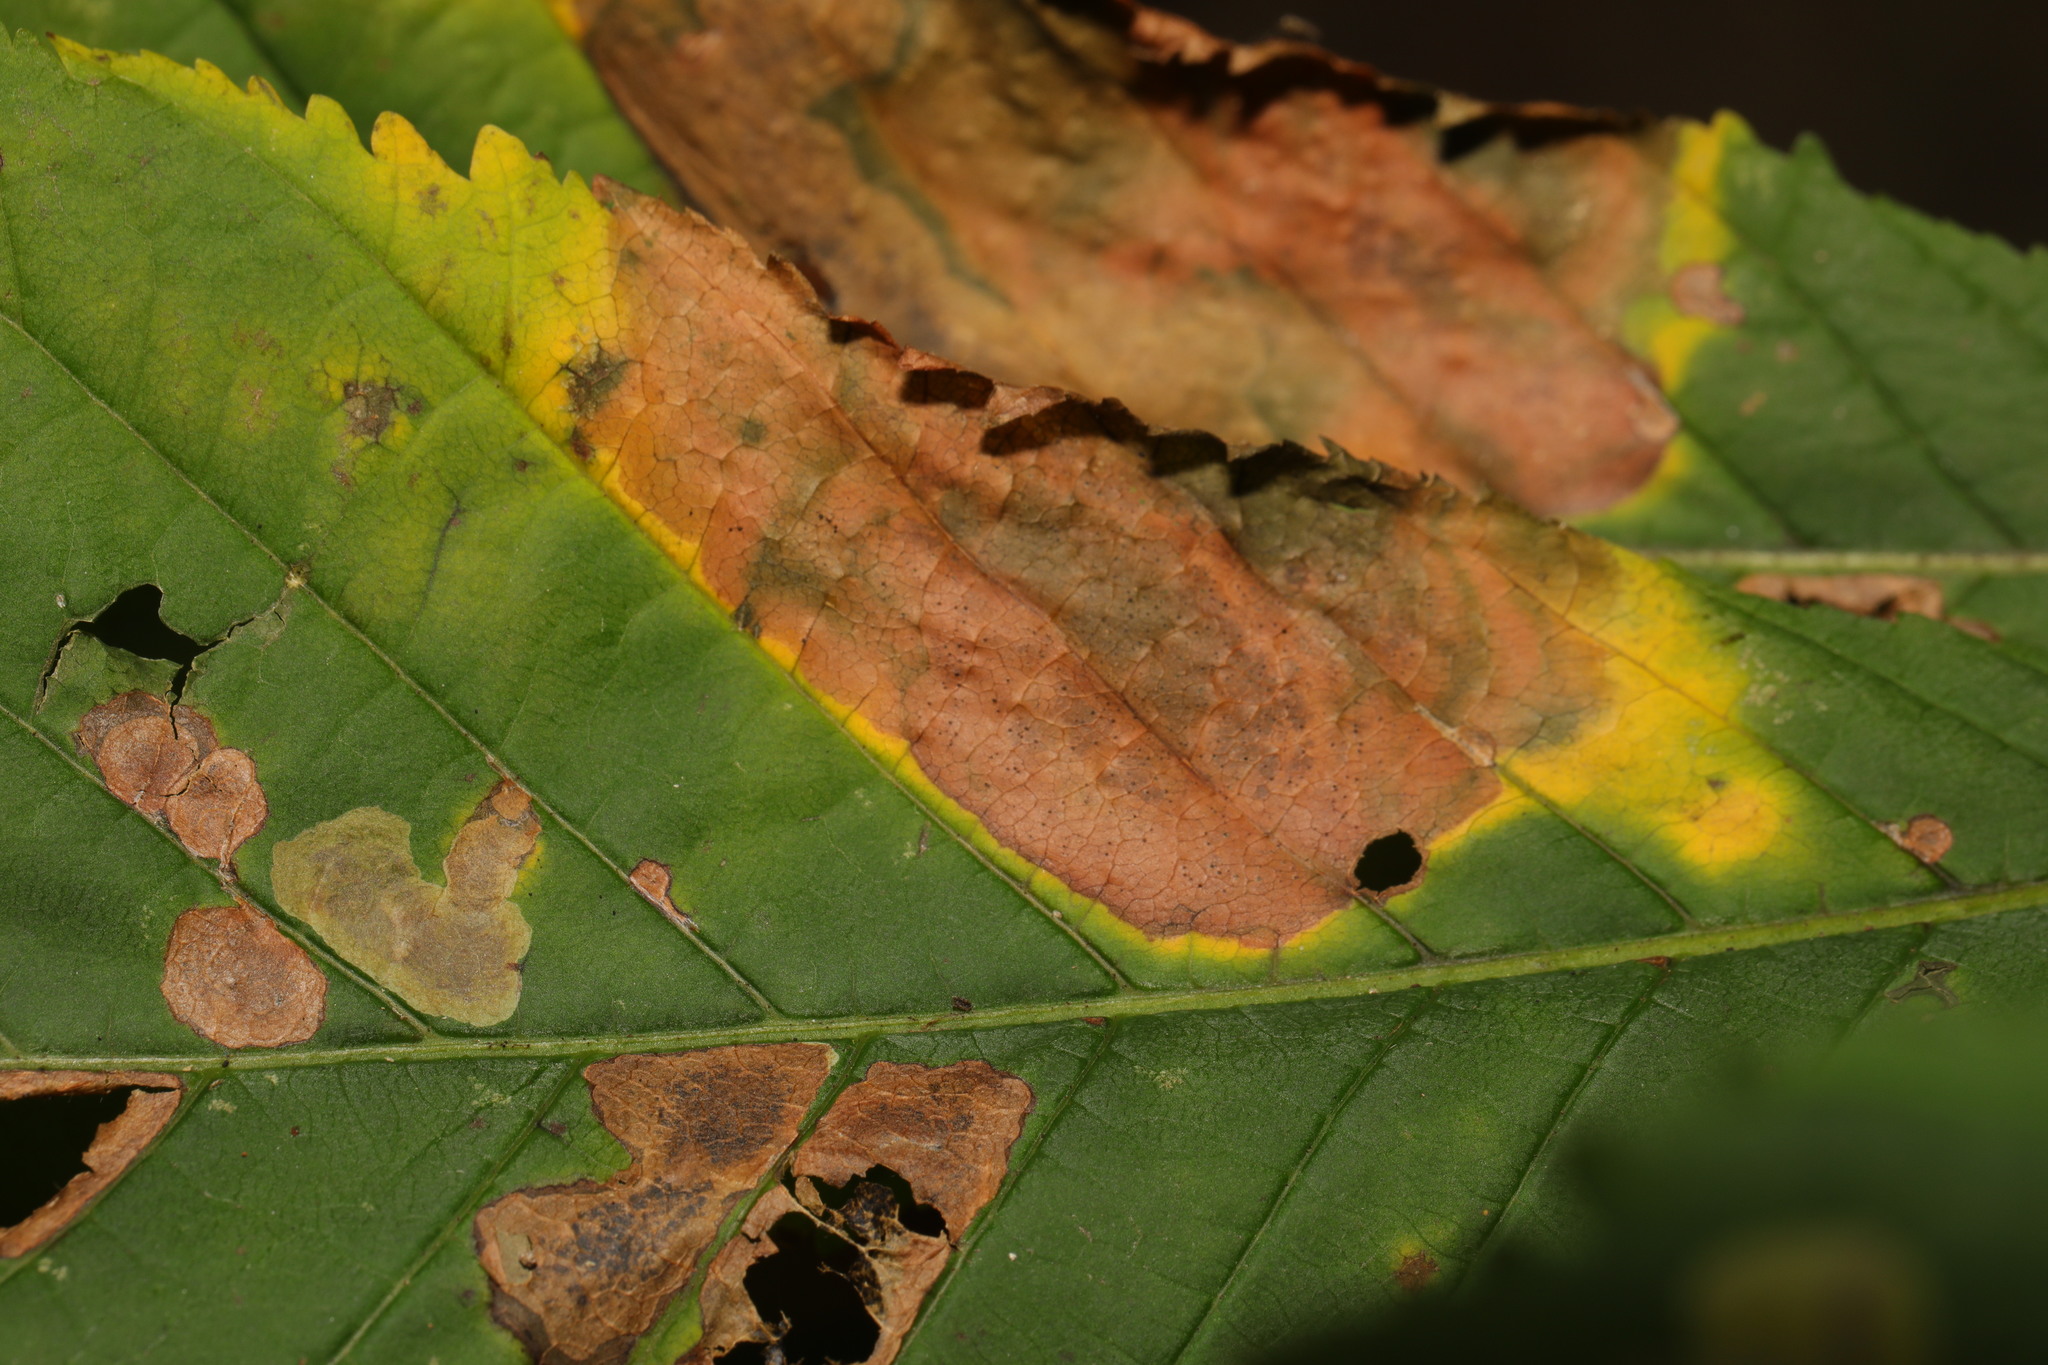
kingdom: Fungi
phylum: Ascomycota
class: Dothideomycetes
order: Botryosphaeriales
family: Phyllostictaceae
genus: Phyllosticta
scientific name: Phyllosticta paviae
